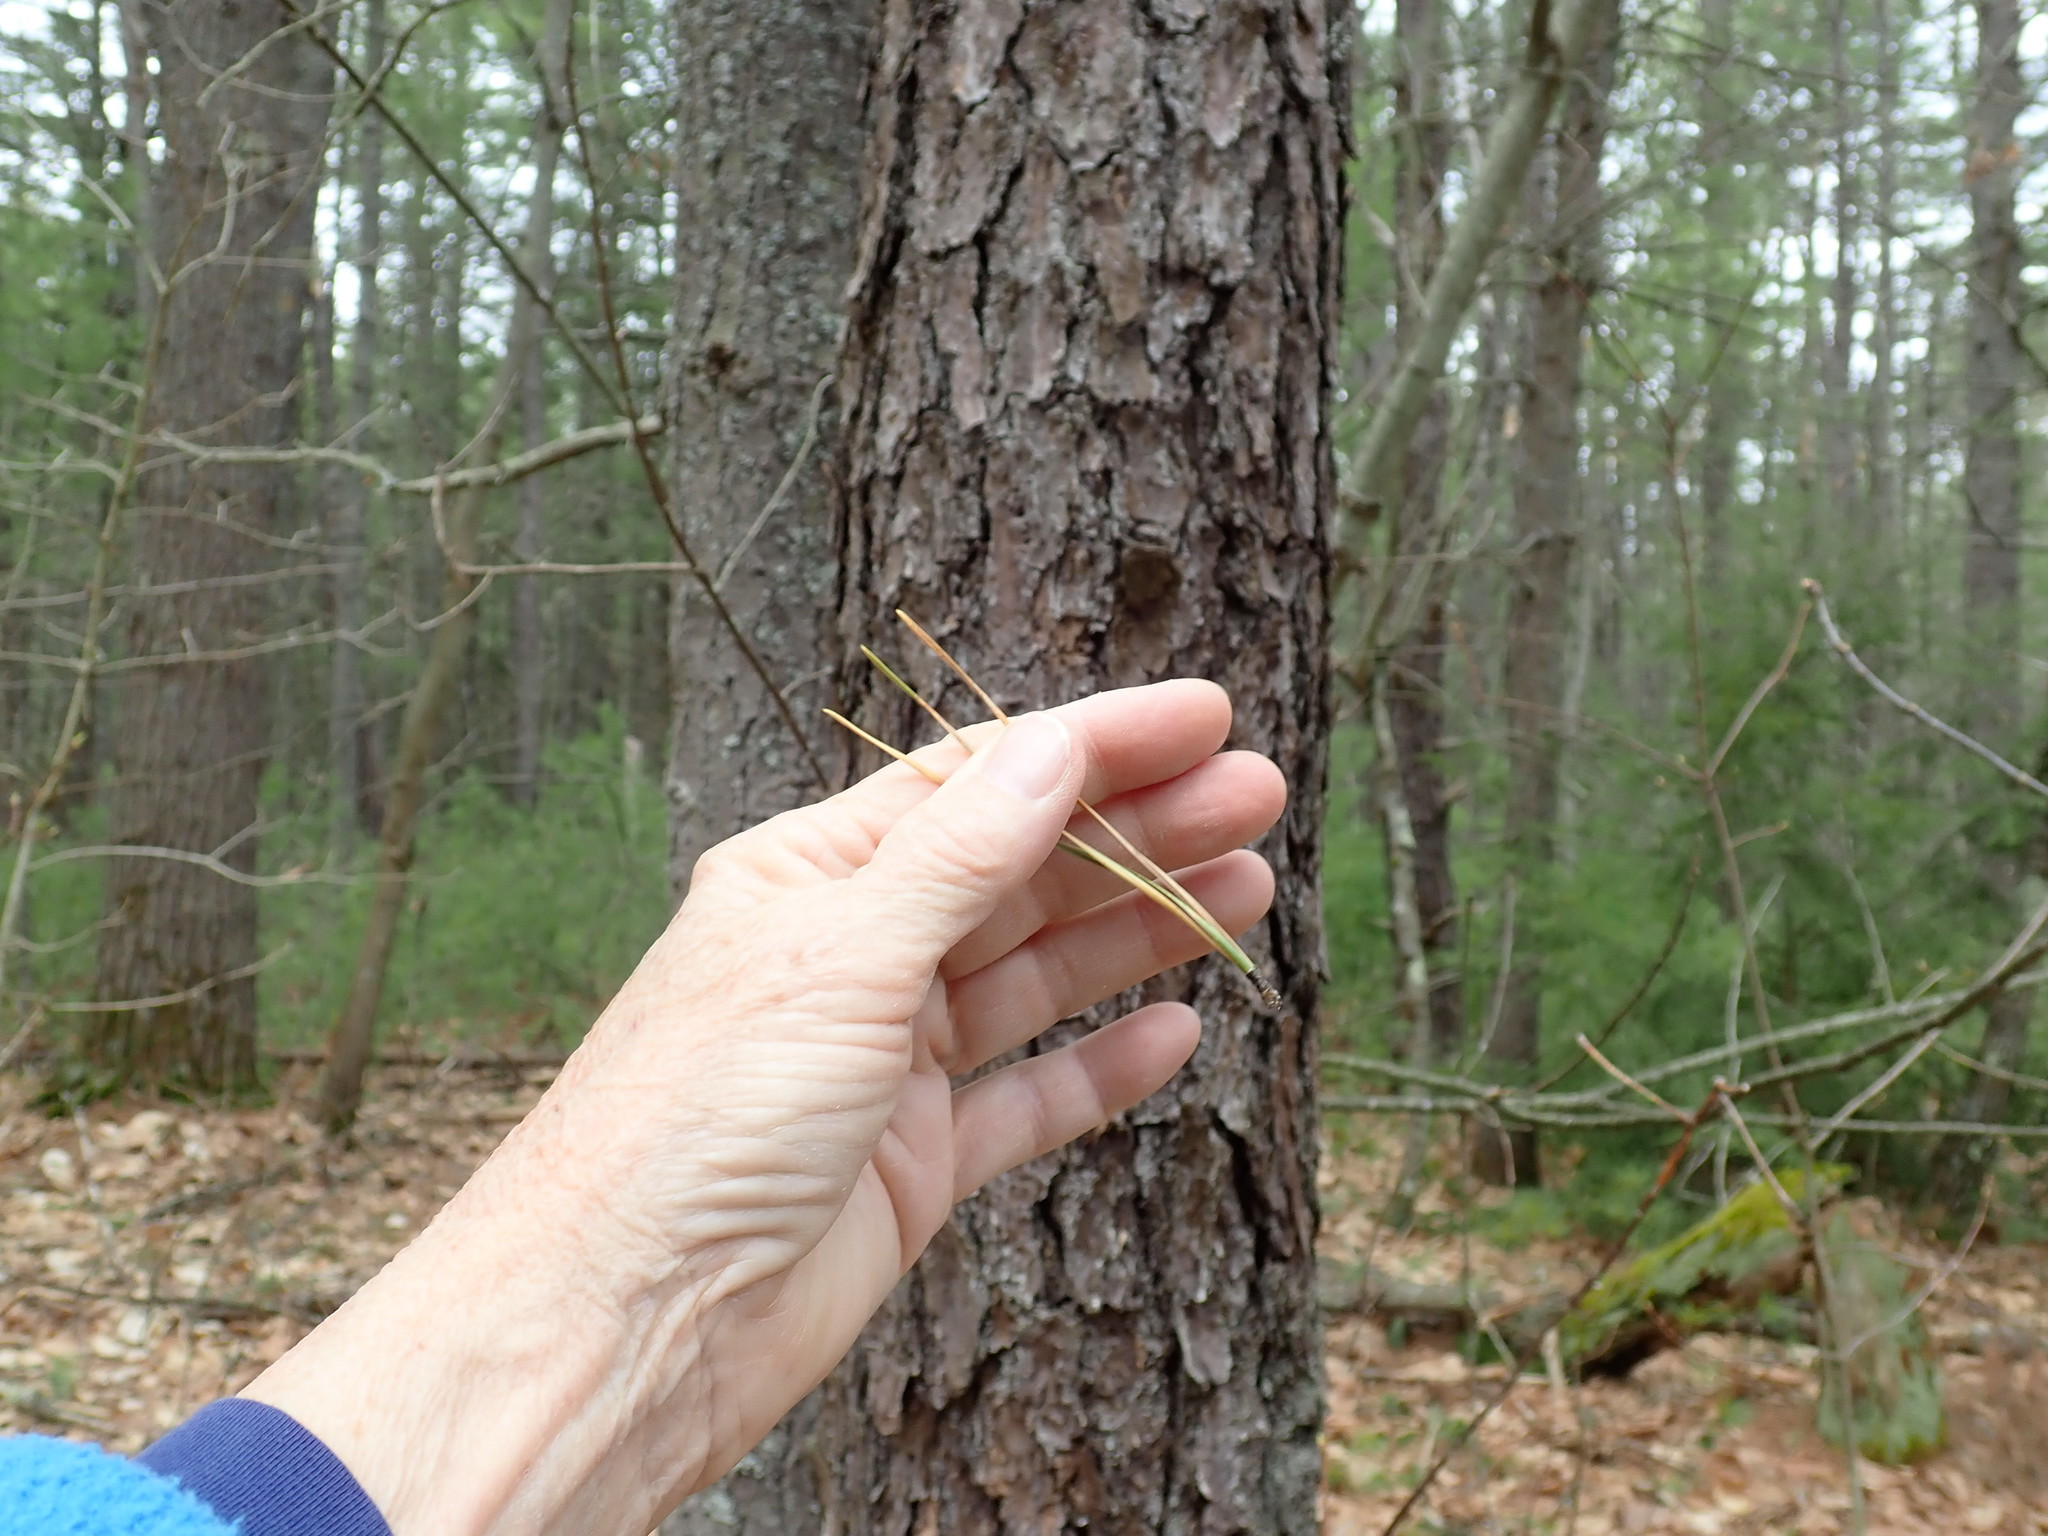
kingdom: Plantae
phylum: Tracheophyta
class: Pinopsida
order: Pinales
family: Pinaceae
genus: Pinus
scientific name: Pinus rigida
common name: Pitch pine
